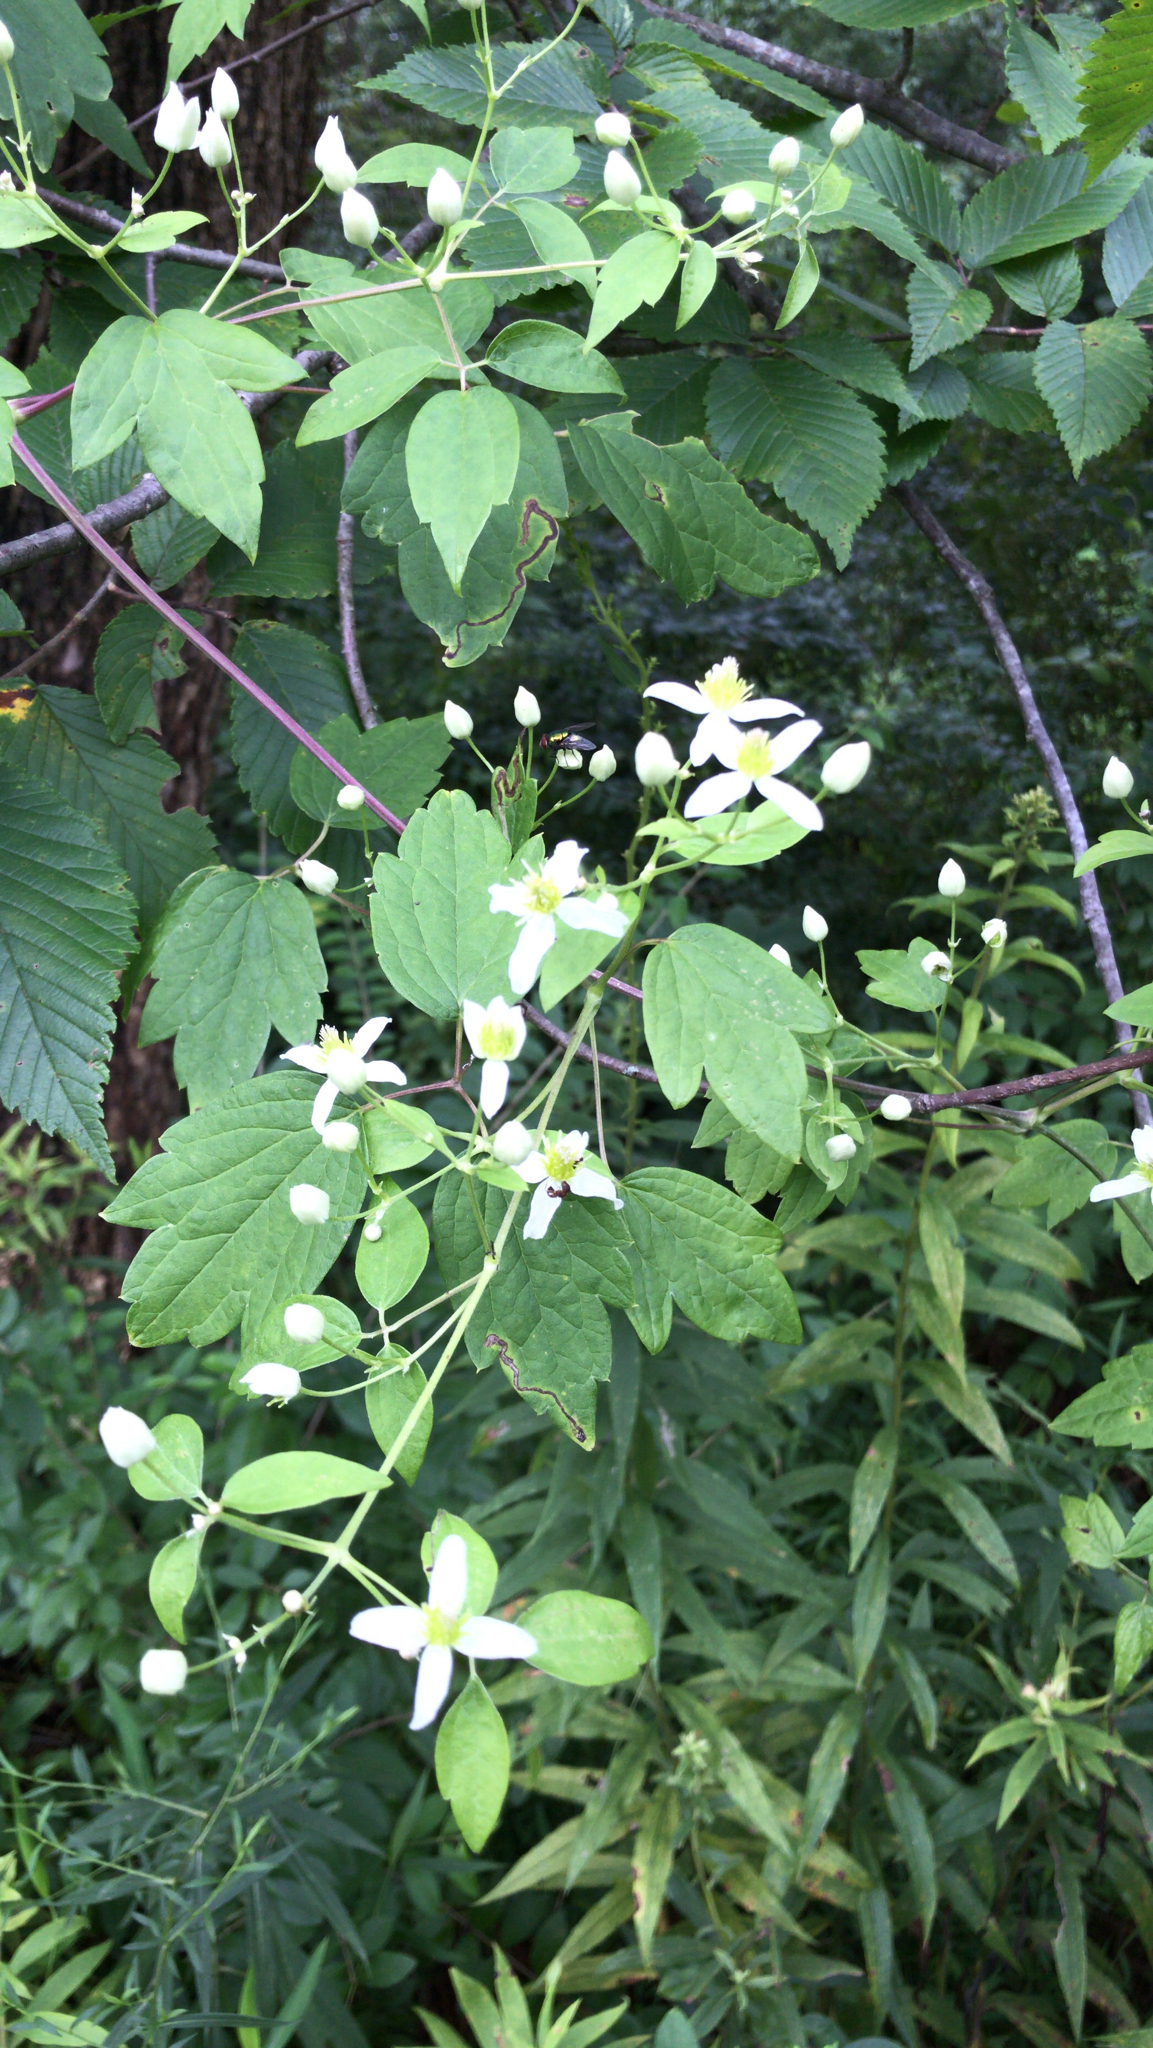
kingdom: Plantae
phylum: Tracheophyta
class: Magnoliopsida
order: Ranunculales
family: Ranunculaceae
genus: Clematis
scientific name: Clematis virginiana
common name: Virgin's-bower
